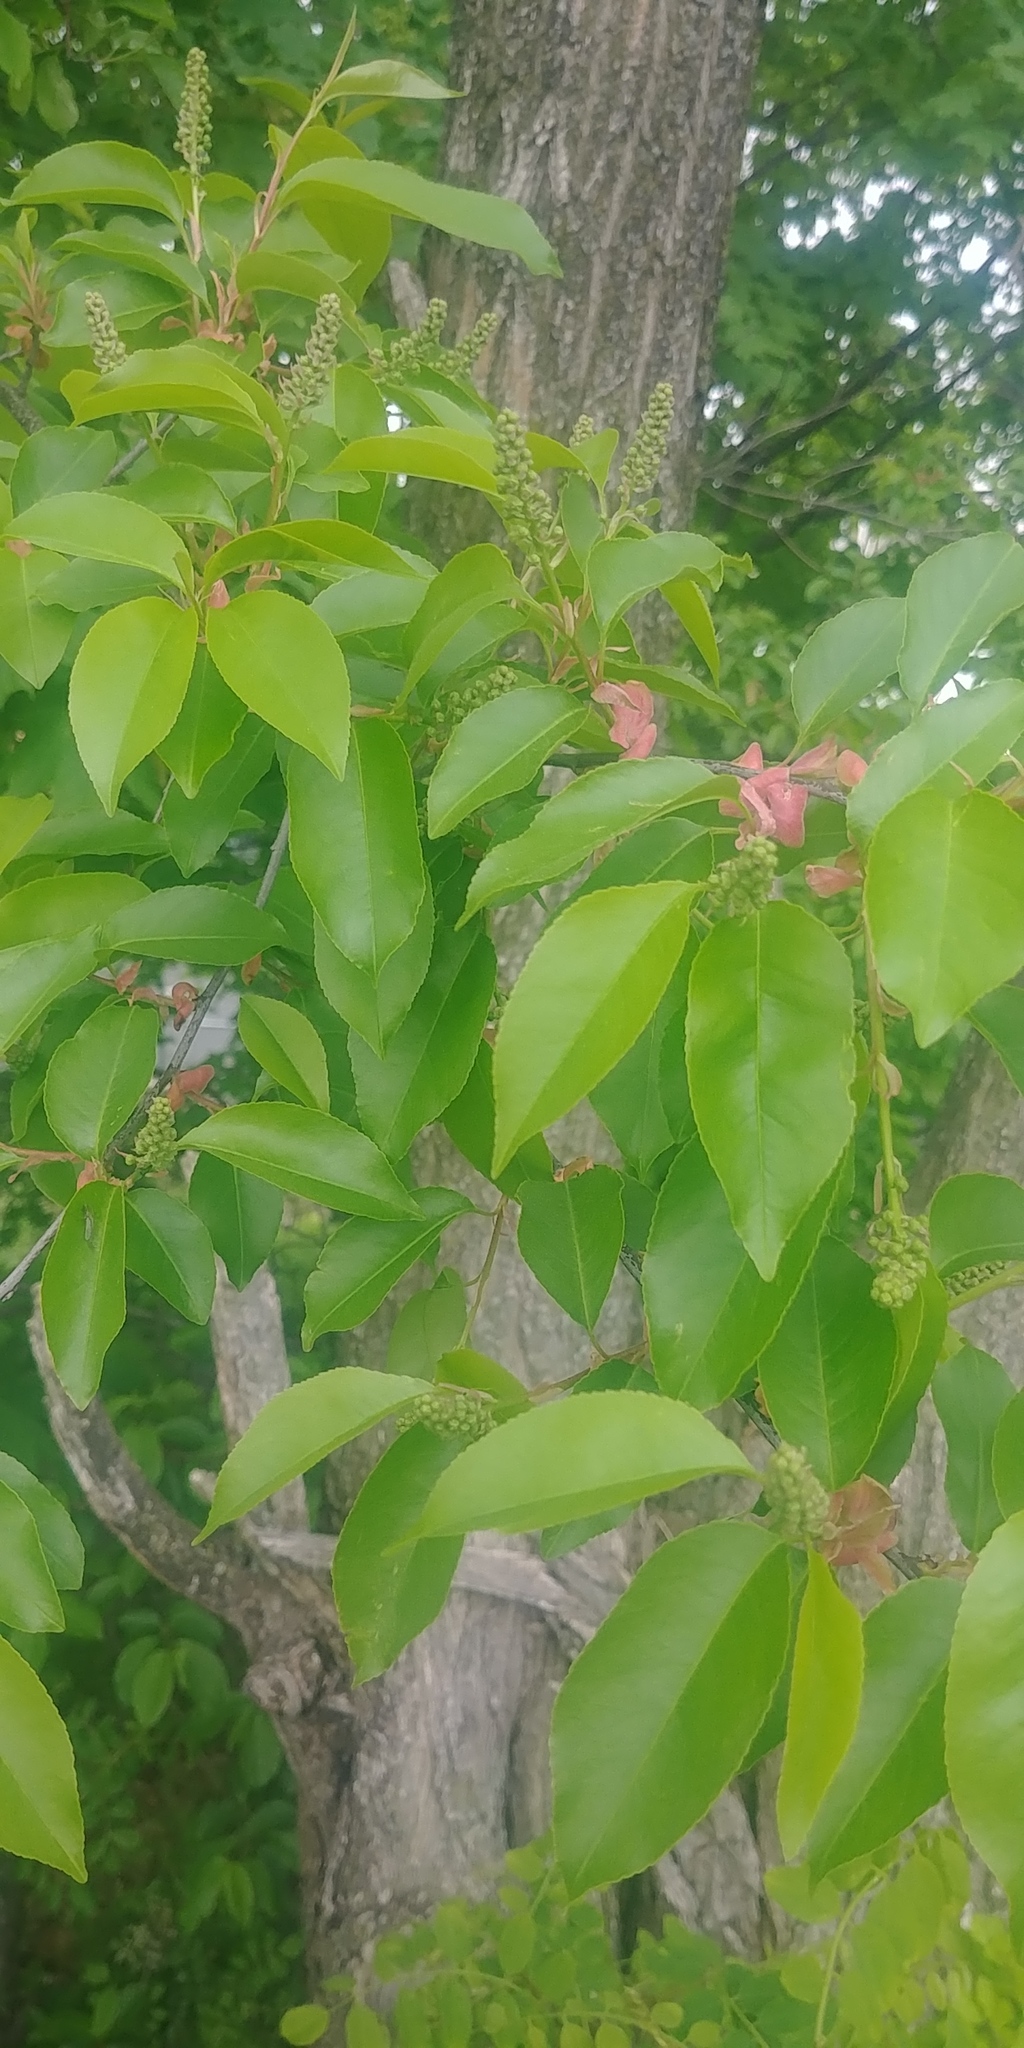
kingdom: Plantae
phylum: Tracheophyta
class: Magnoliopsida
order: Rosales
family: Rosaceae
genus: Prunus
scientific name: Prunus serotina
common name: Black cherry
